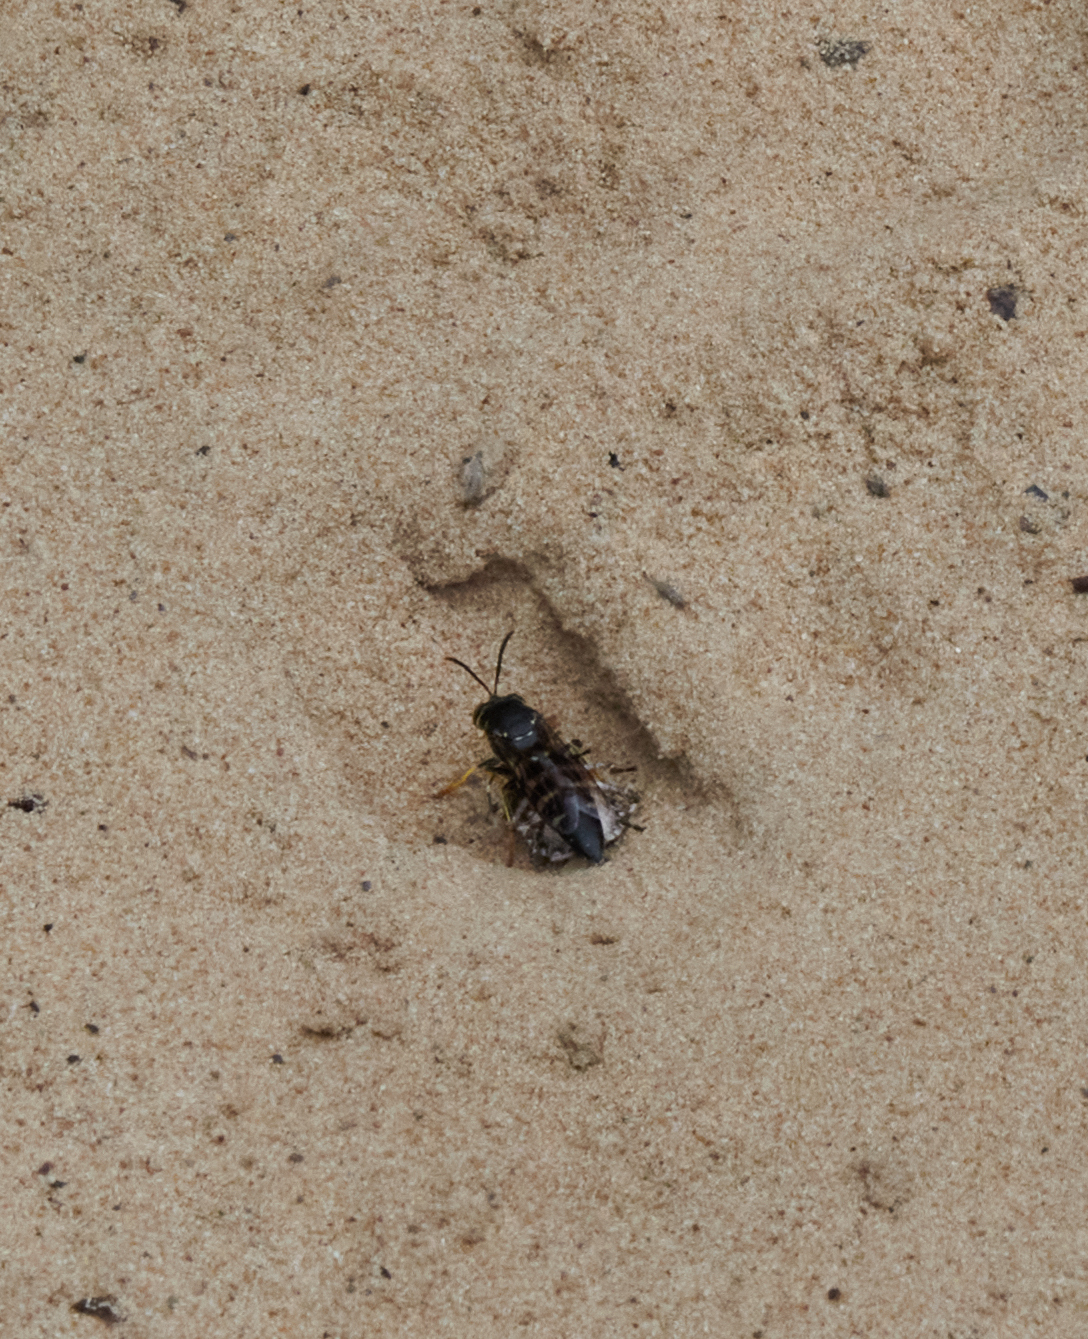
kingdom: Animalia
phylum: Arthropoda
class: Insecta
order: Hymenoptera
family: Crabronidae
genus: Bicyrtes
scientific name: Bicyrtes quadrifasciatus
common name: Four-banded stink bug hunter wasp
